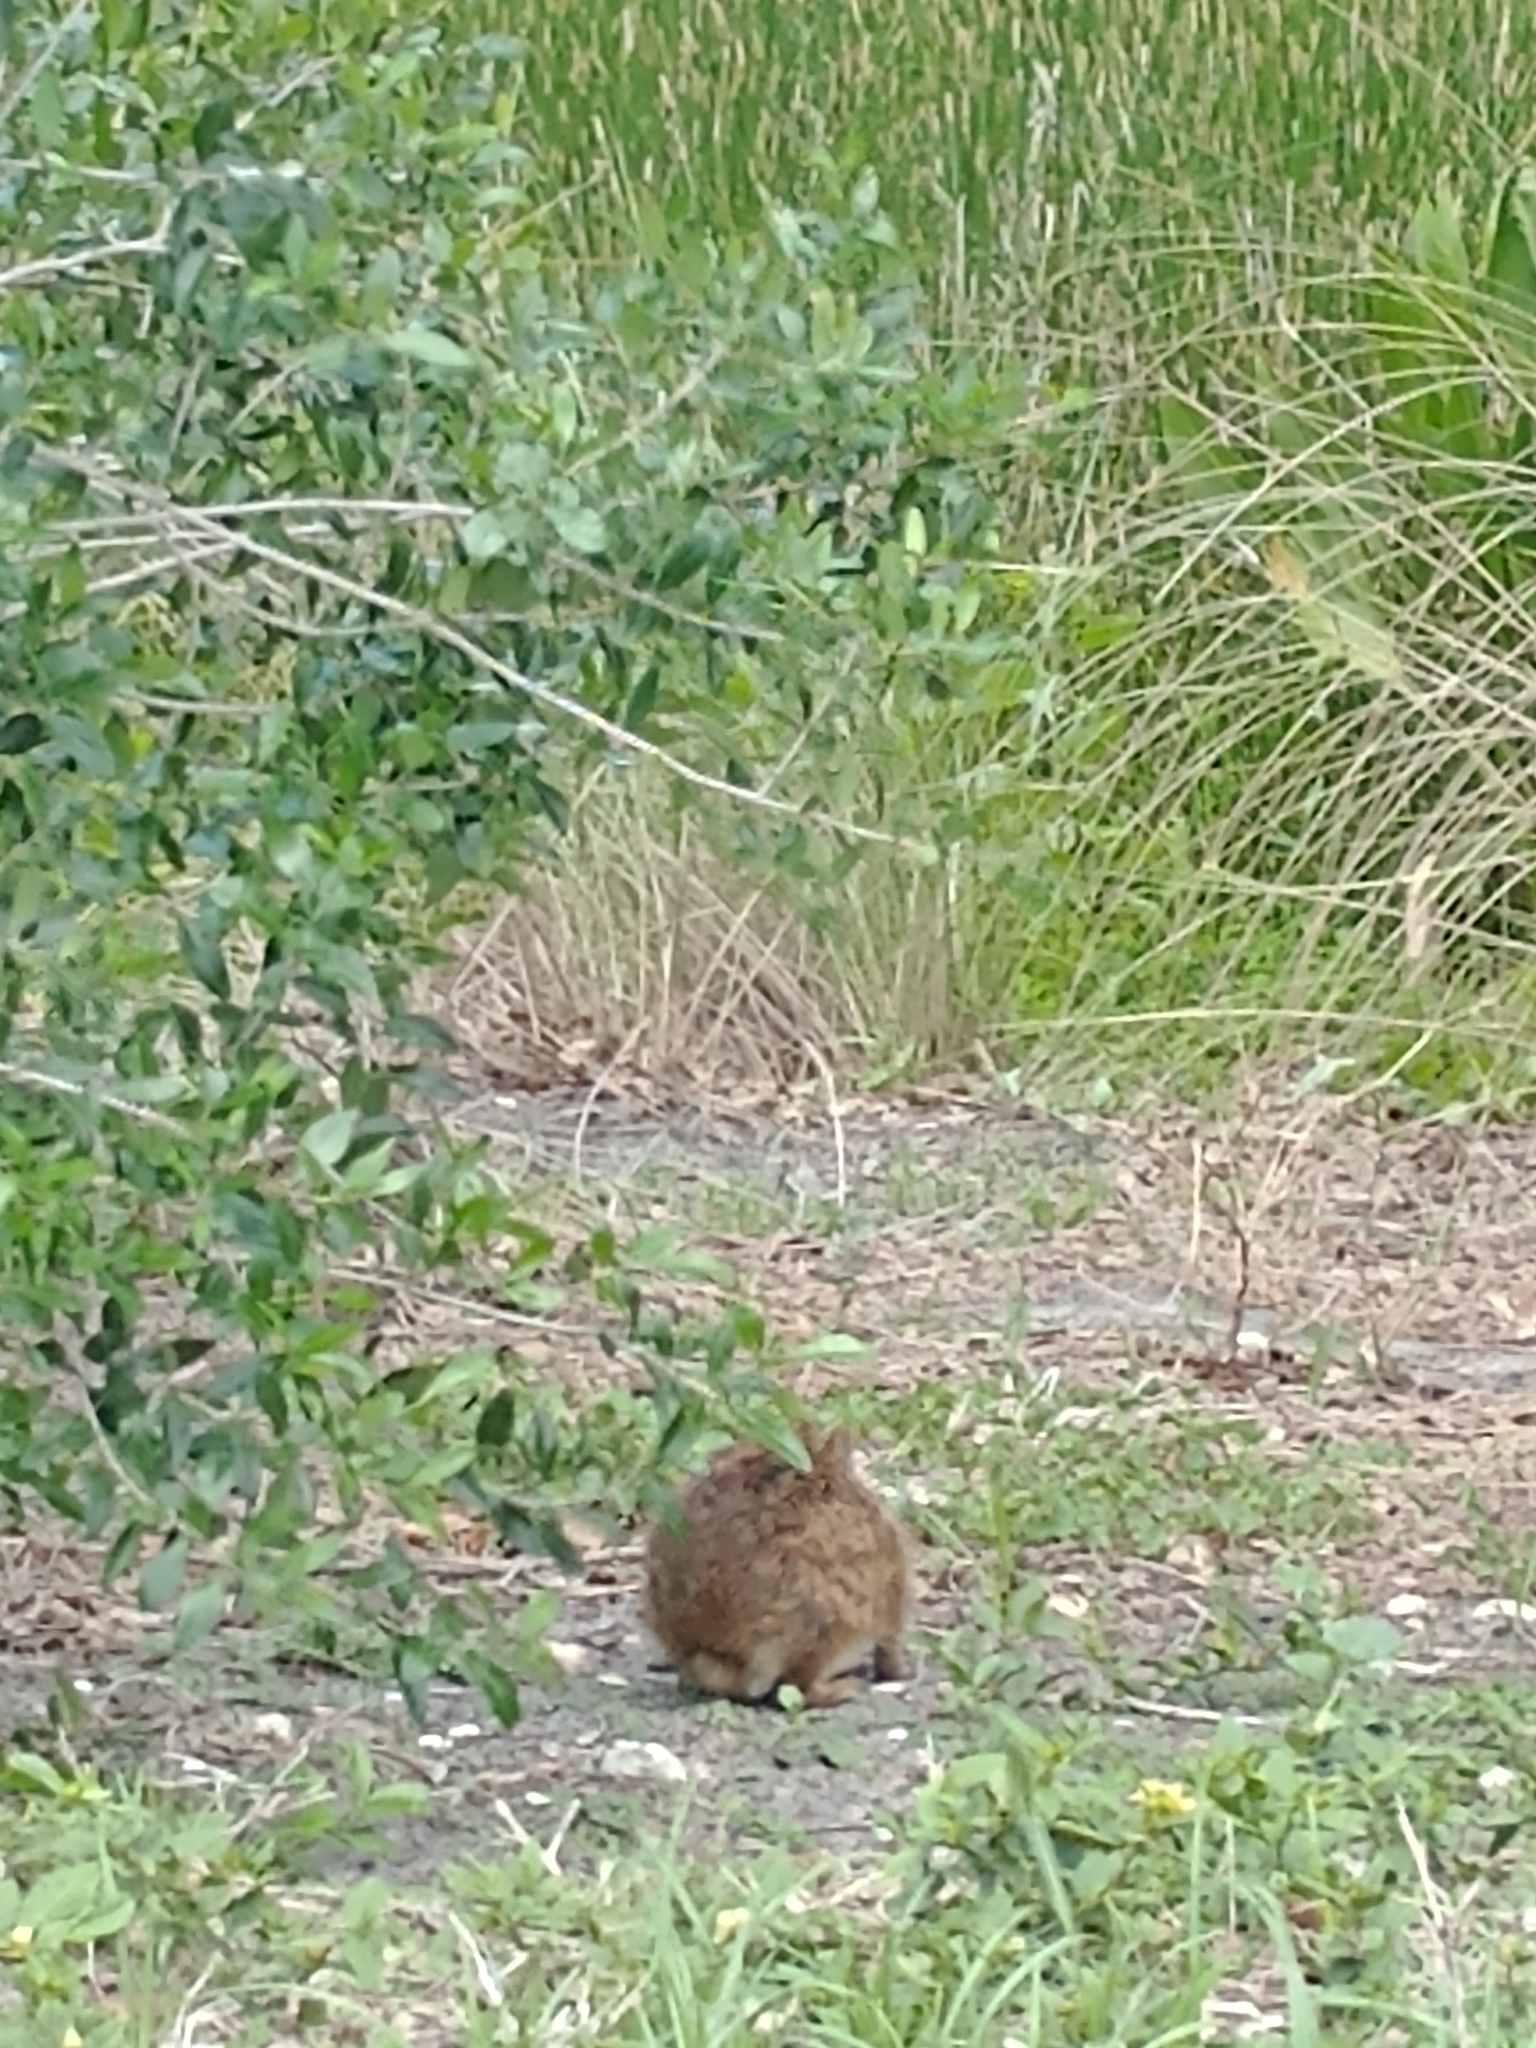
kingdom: Animalia
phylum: Chordata
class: Mammalia
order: Lagomorpha
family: Leporidae
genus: Sylvilagus
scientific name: Sylvilagus palustris
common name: Marsh rabbit
